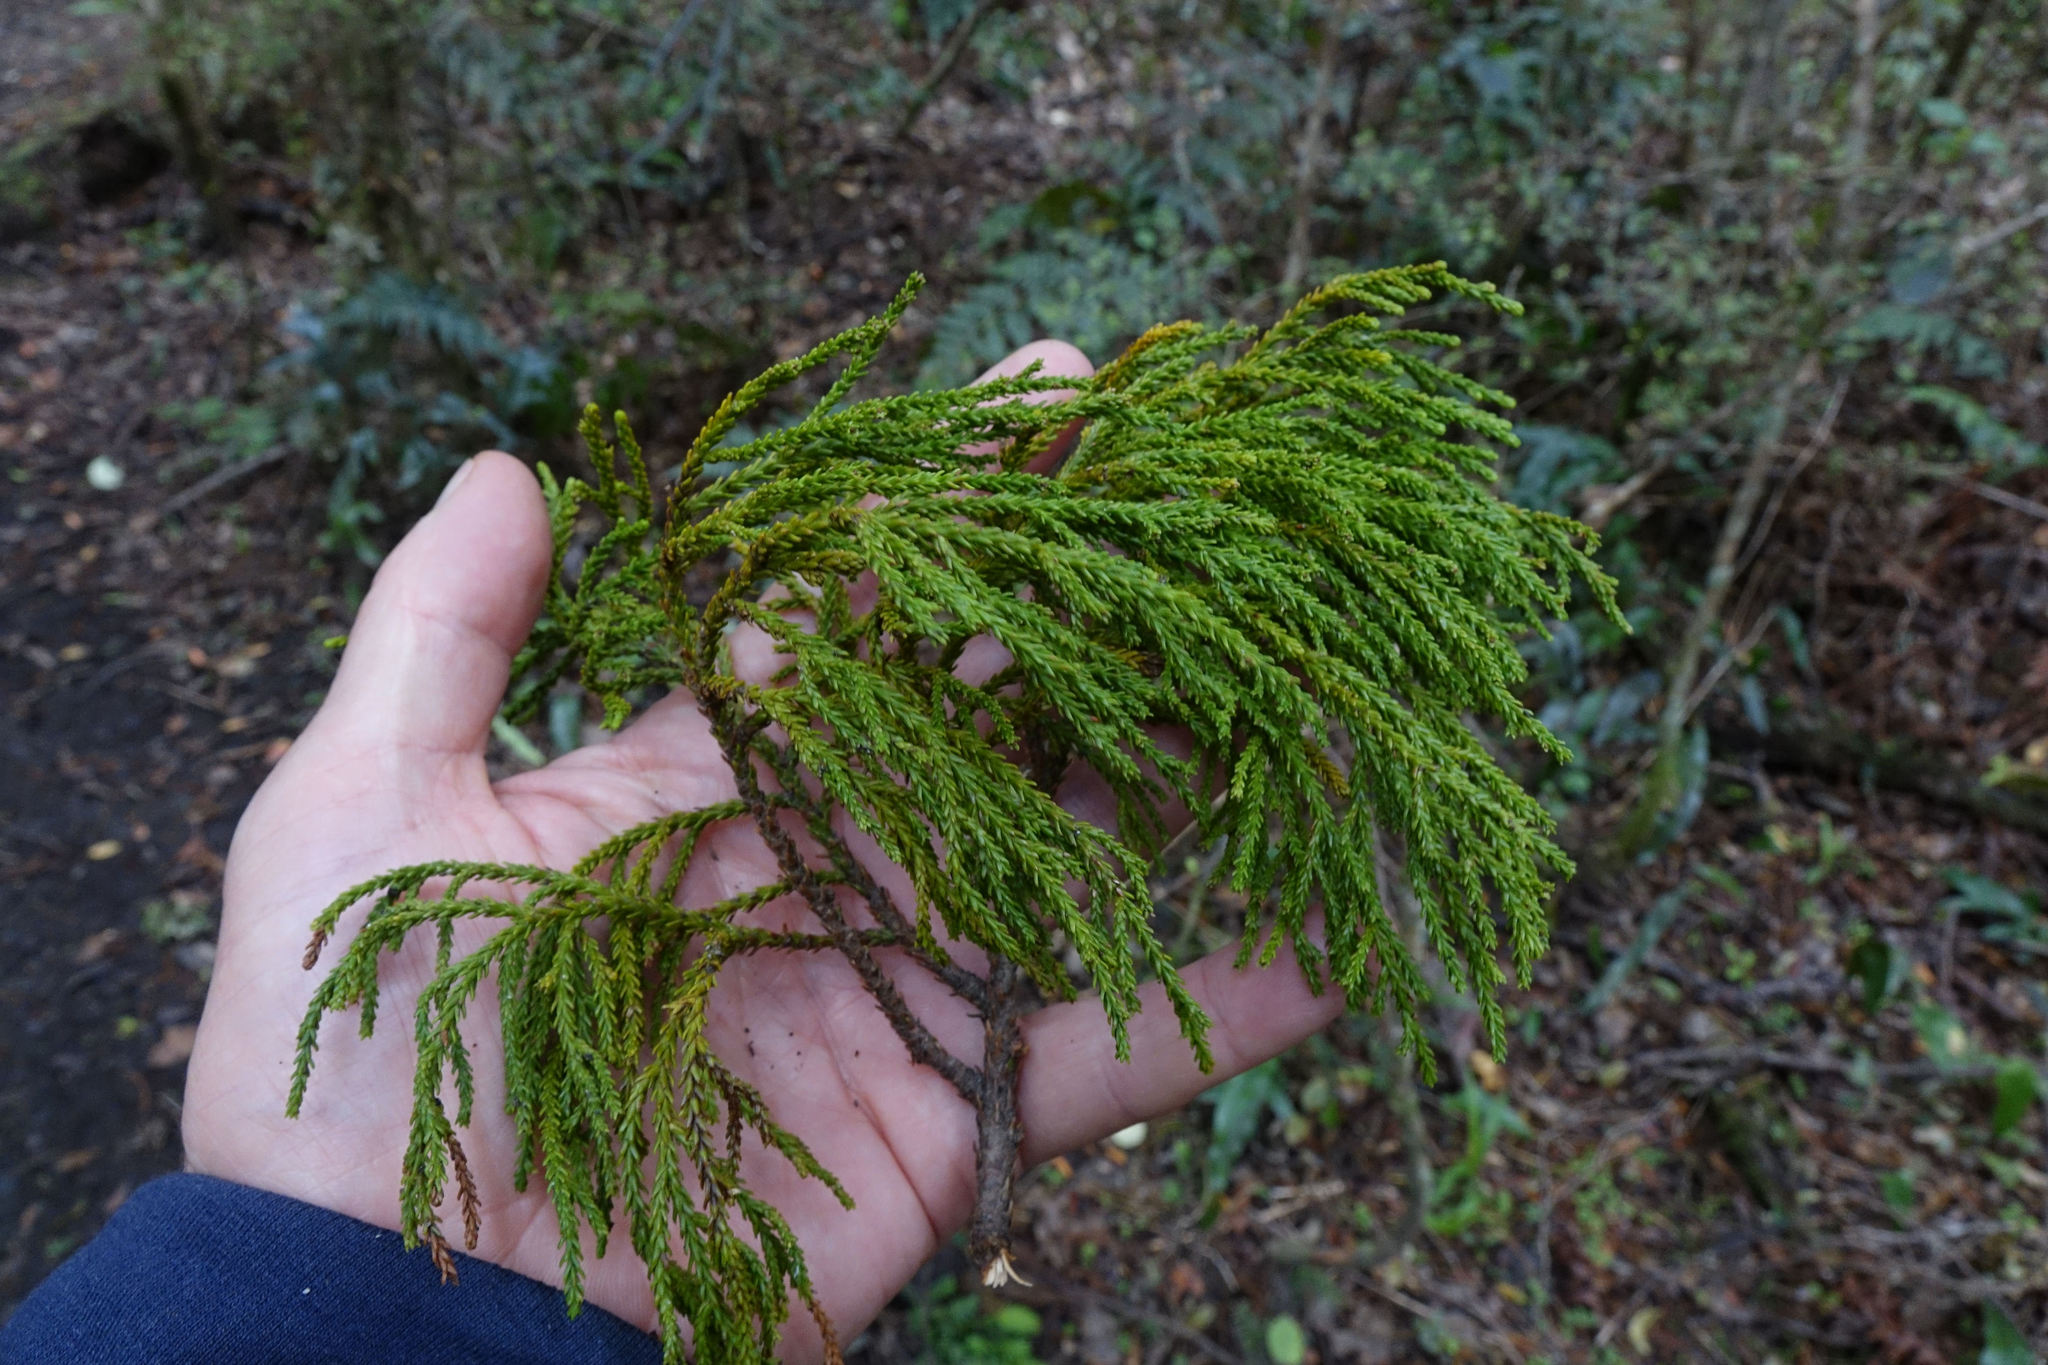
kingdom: Plantae
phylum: Tracheophyta
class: Pinopsida
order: Pinales
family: Podocarpaceae
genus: Dacrydium
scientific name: Dacrydium cupressinum
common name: Red pine
